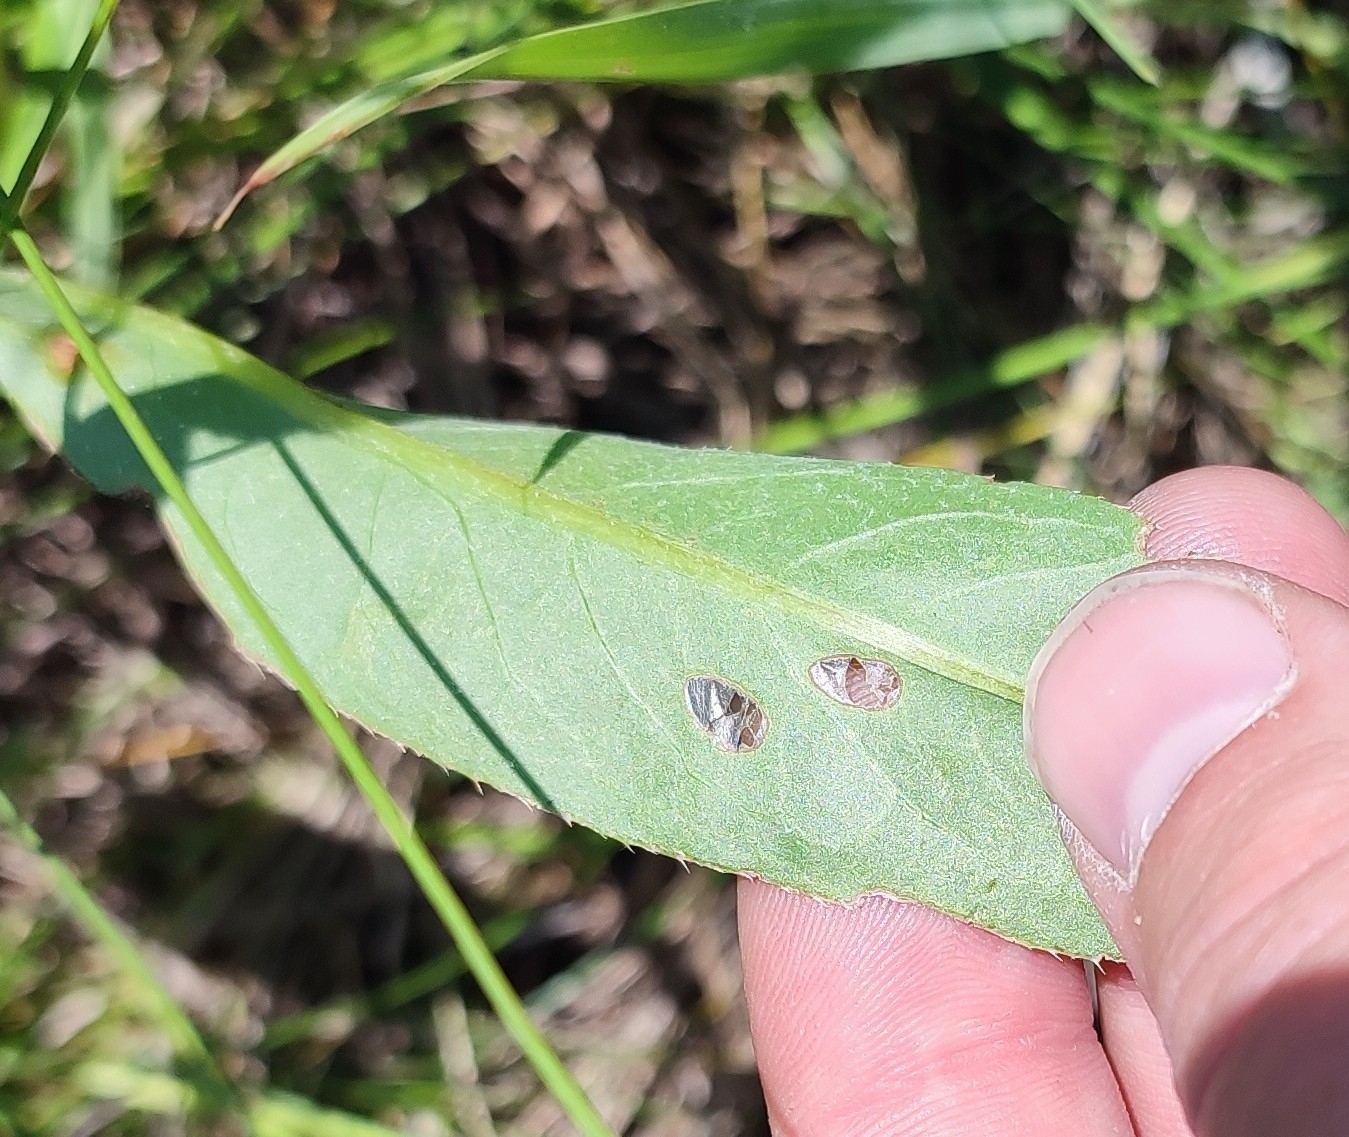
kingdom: Plantae
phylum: Tracheophyta
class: Magnoliopsida
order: Asterales
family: Asteraceae
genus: Cirsium
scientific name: Cirsium arvense
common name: Creeping thistle
